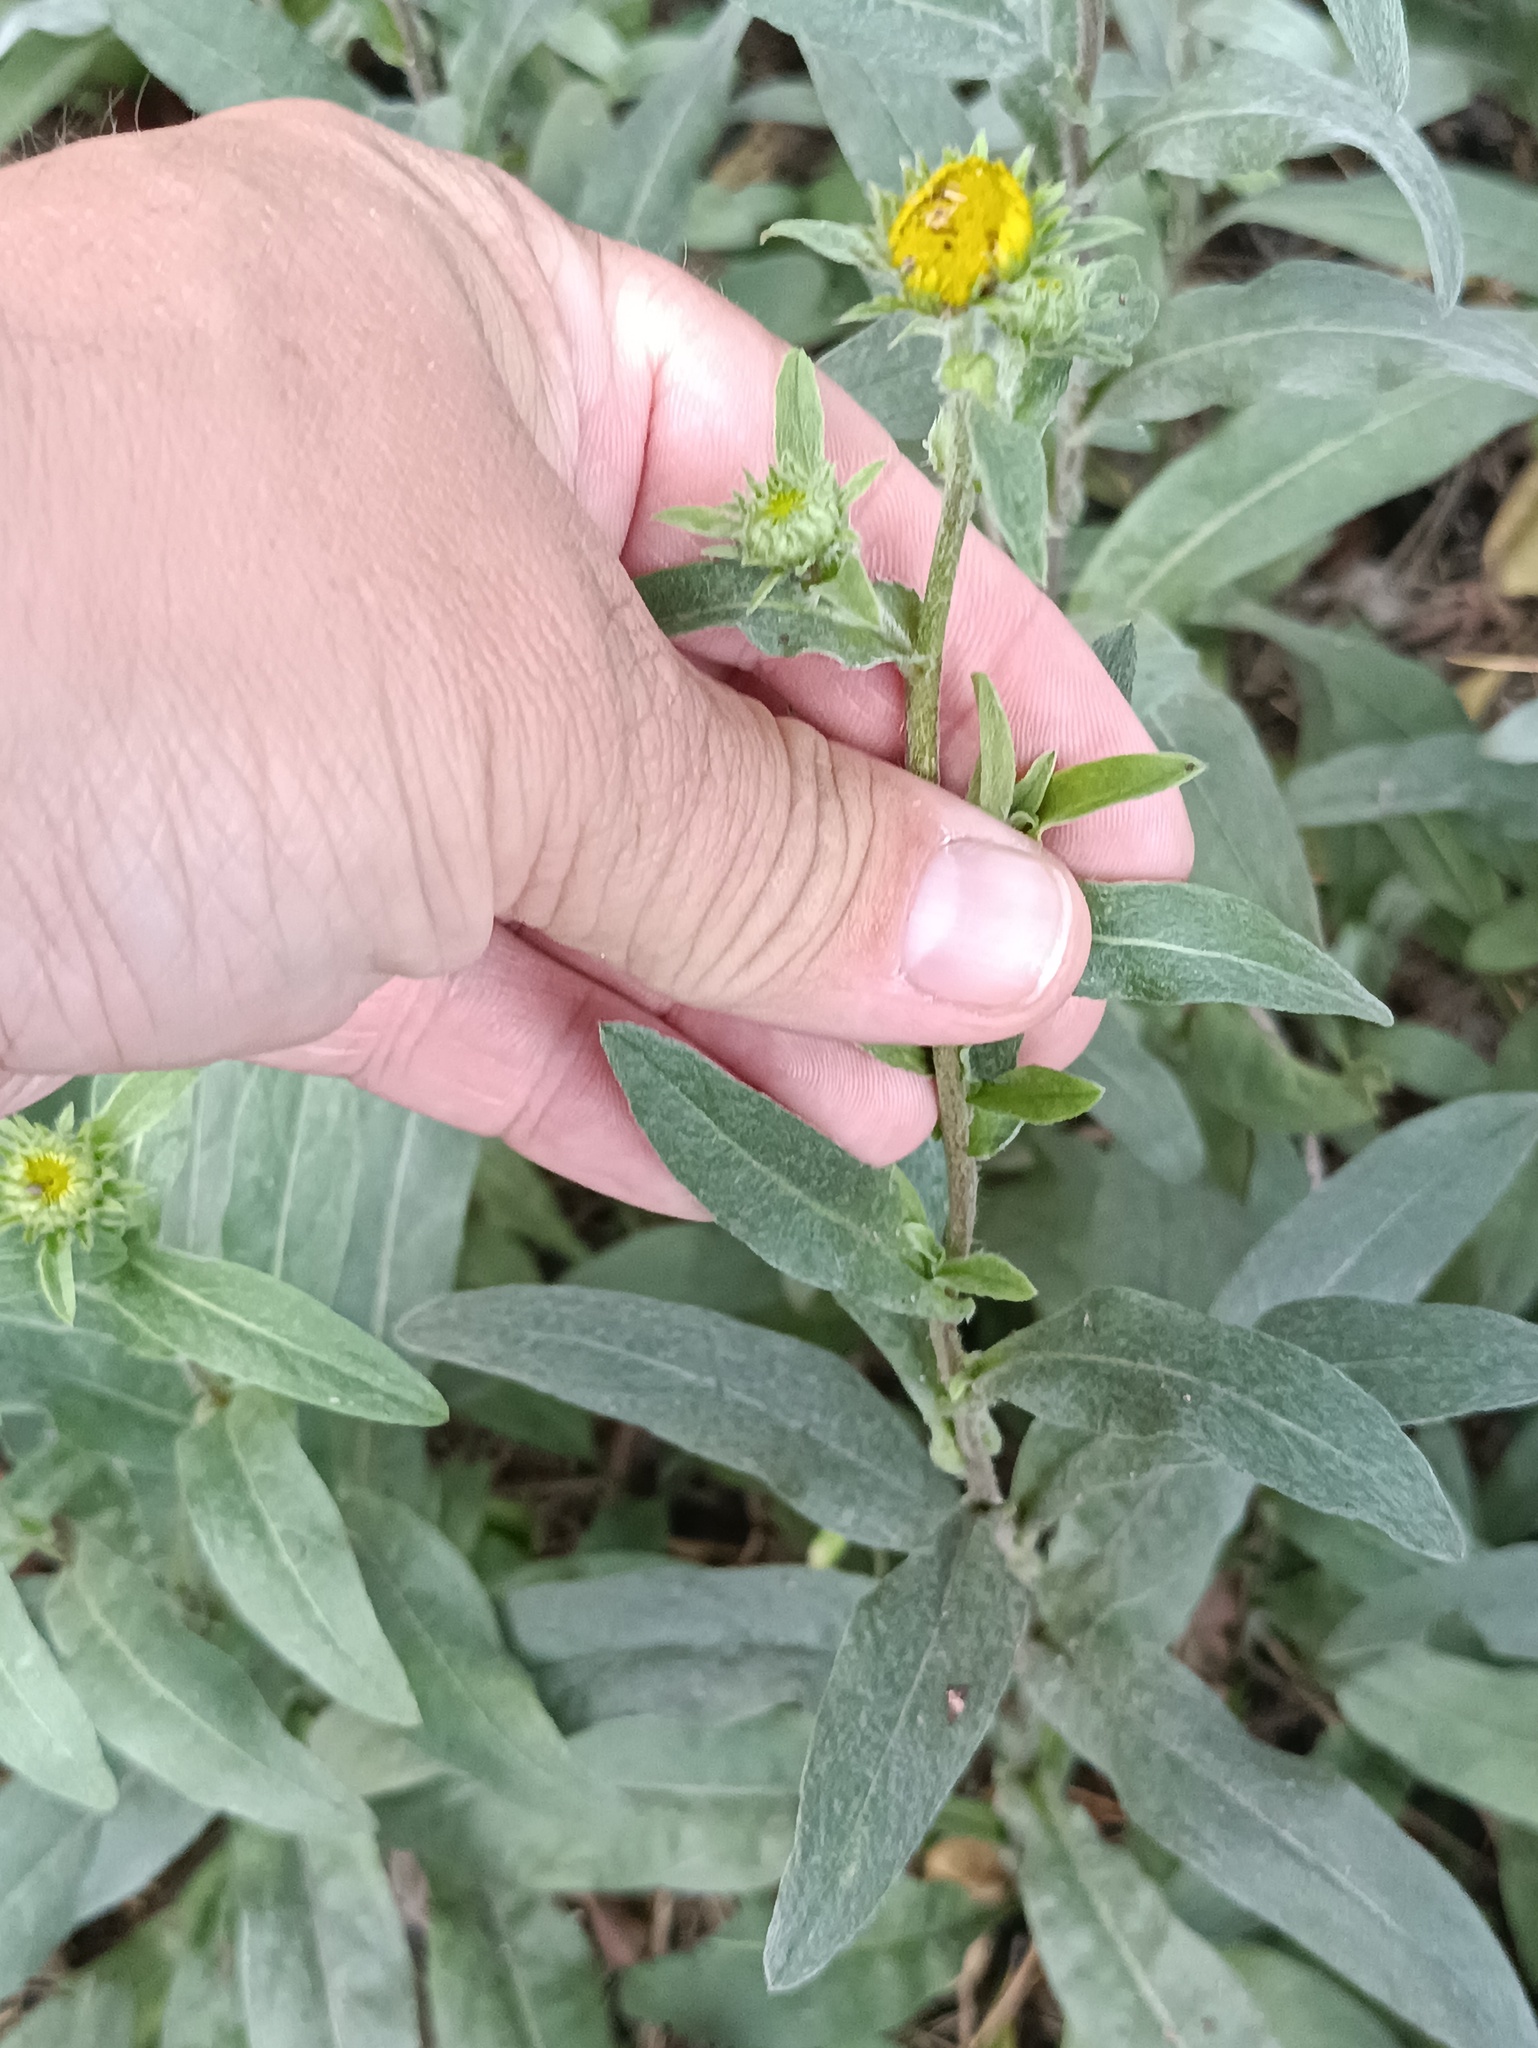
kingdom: Plantae
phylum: Tracheophyta
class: Magnoliopsida
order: Asterales
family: Asteraceae
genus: Pentanema
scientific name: Pentanema britannicum
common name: British elecampane
